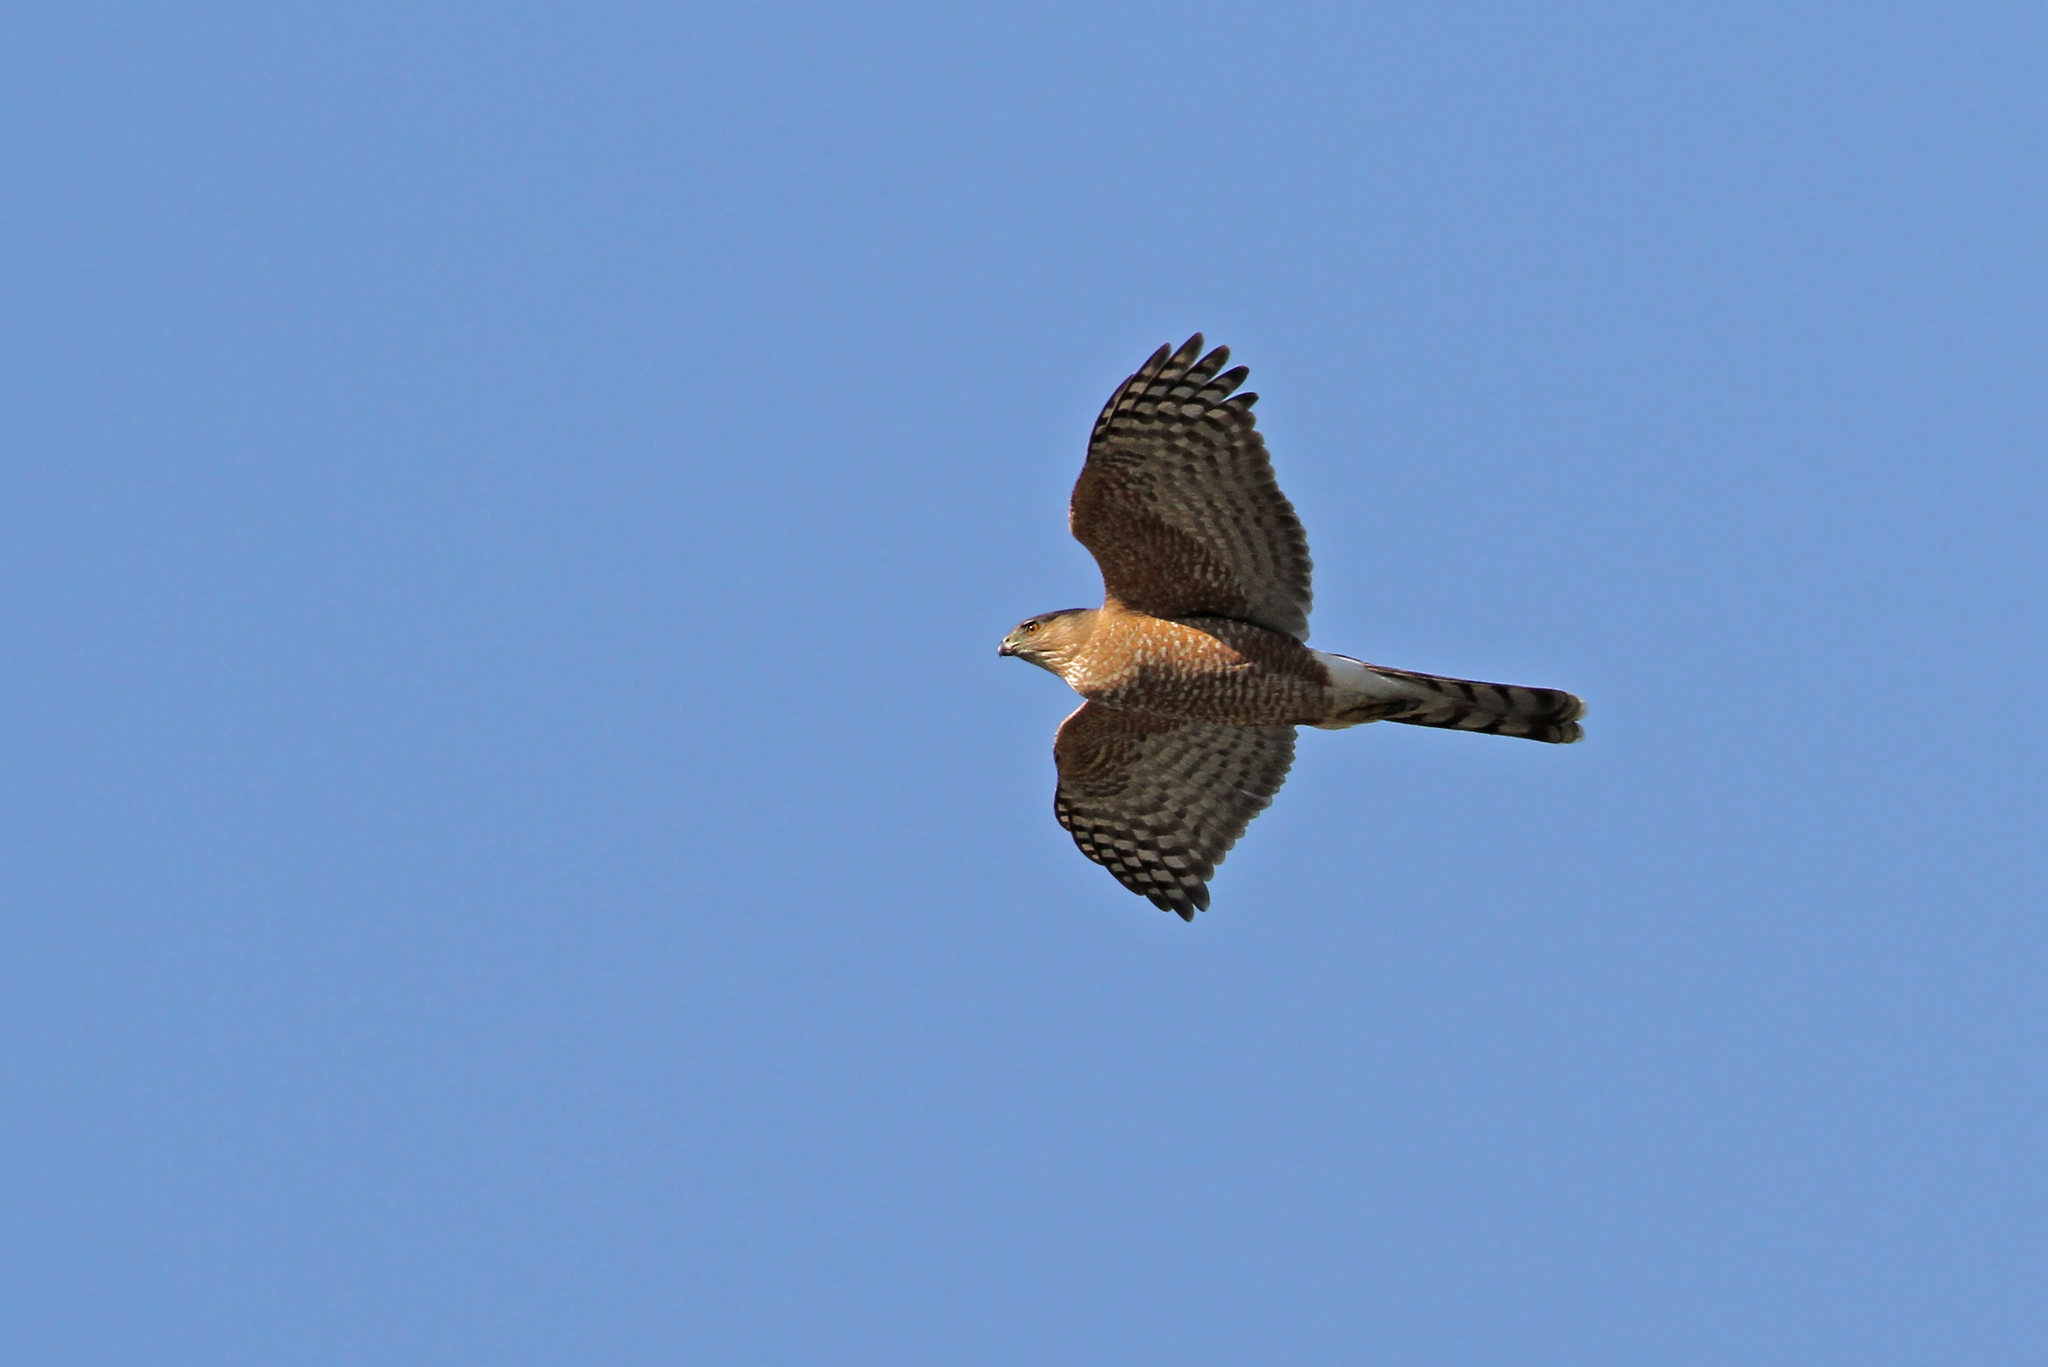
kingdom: Animalia
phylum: Chordata
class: Aves
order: Accipitriformes
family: Accipitridae
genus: Accipiter
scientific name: Accipiter cooperii
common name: Cooper's hawk
